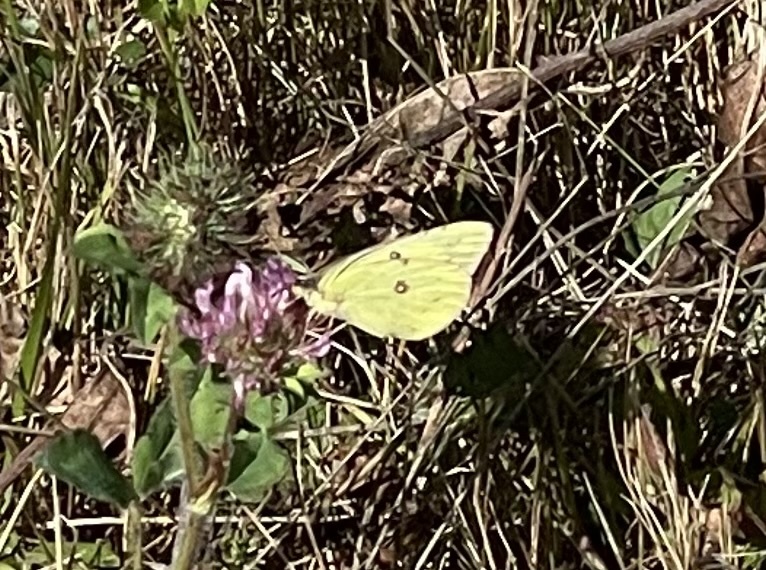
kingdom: Animalia
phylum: Arthropoda
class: Insecta
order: Lepidoptera
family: Pieridae
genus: Colias
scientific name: Colias philodice
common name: Clouded sulphur
